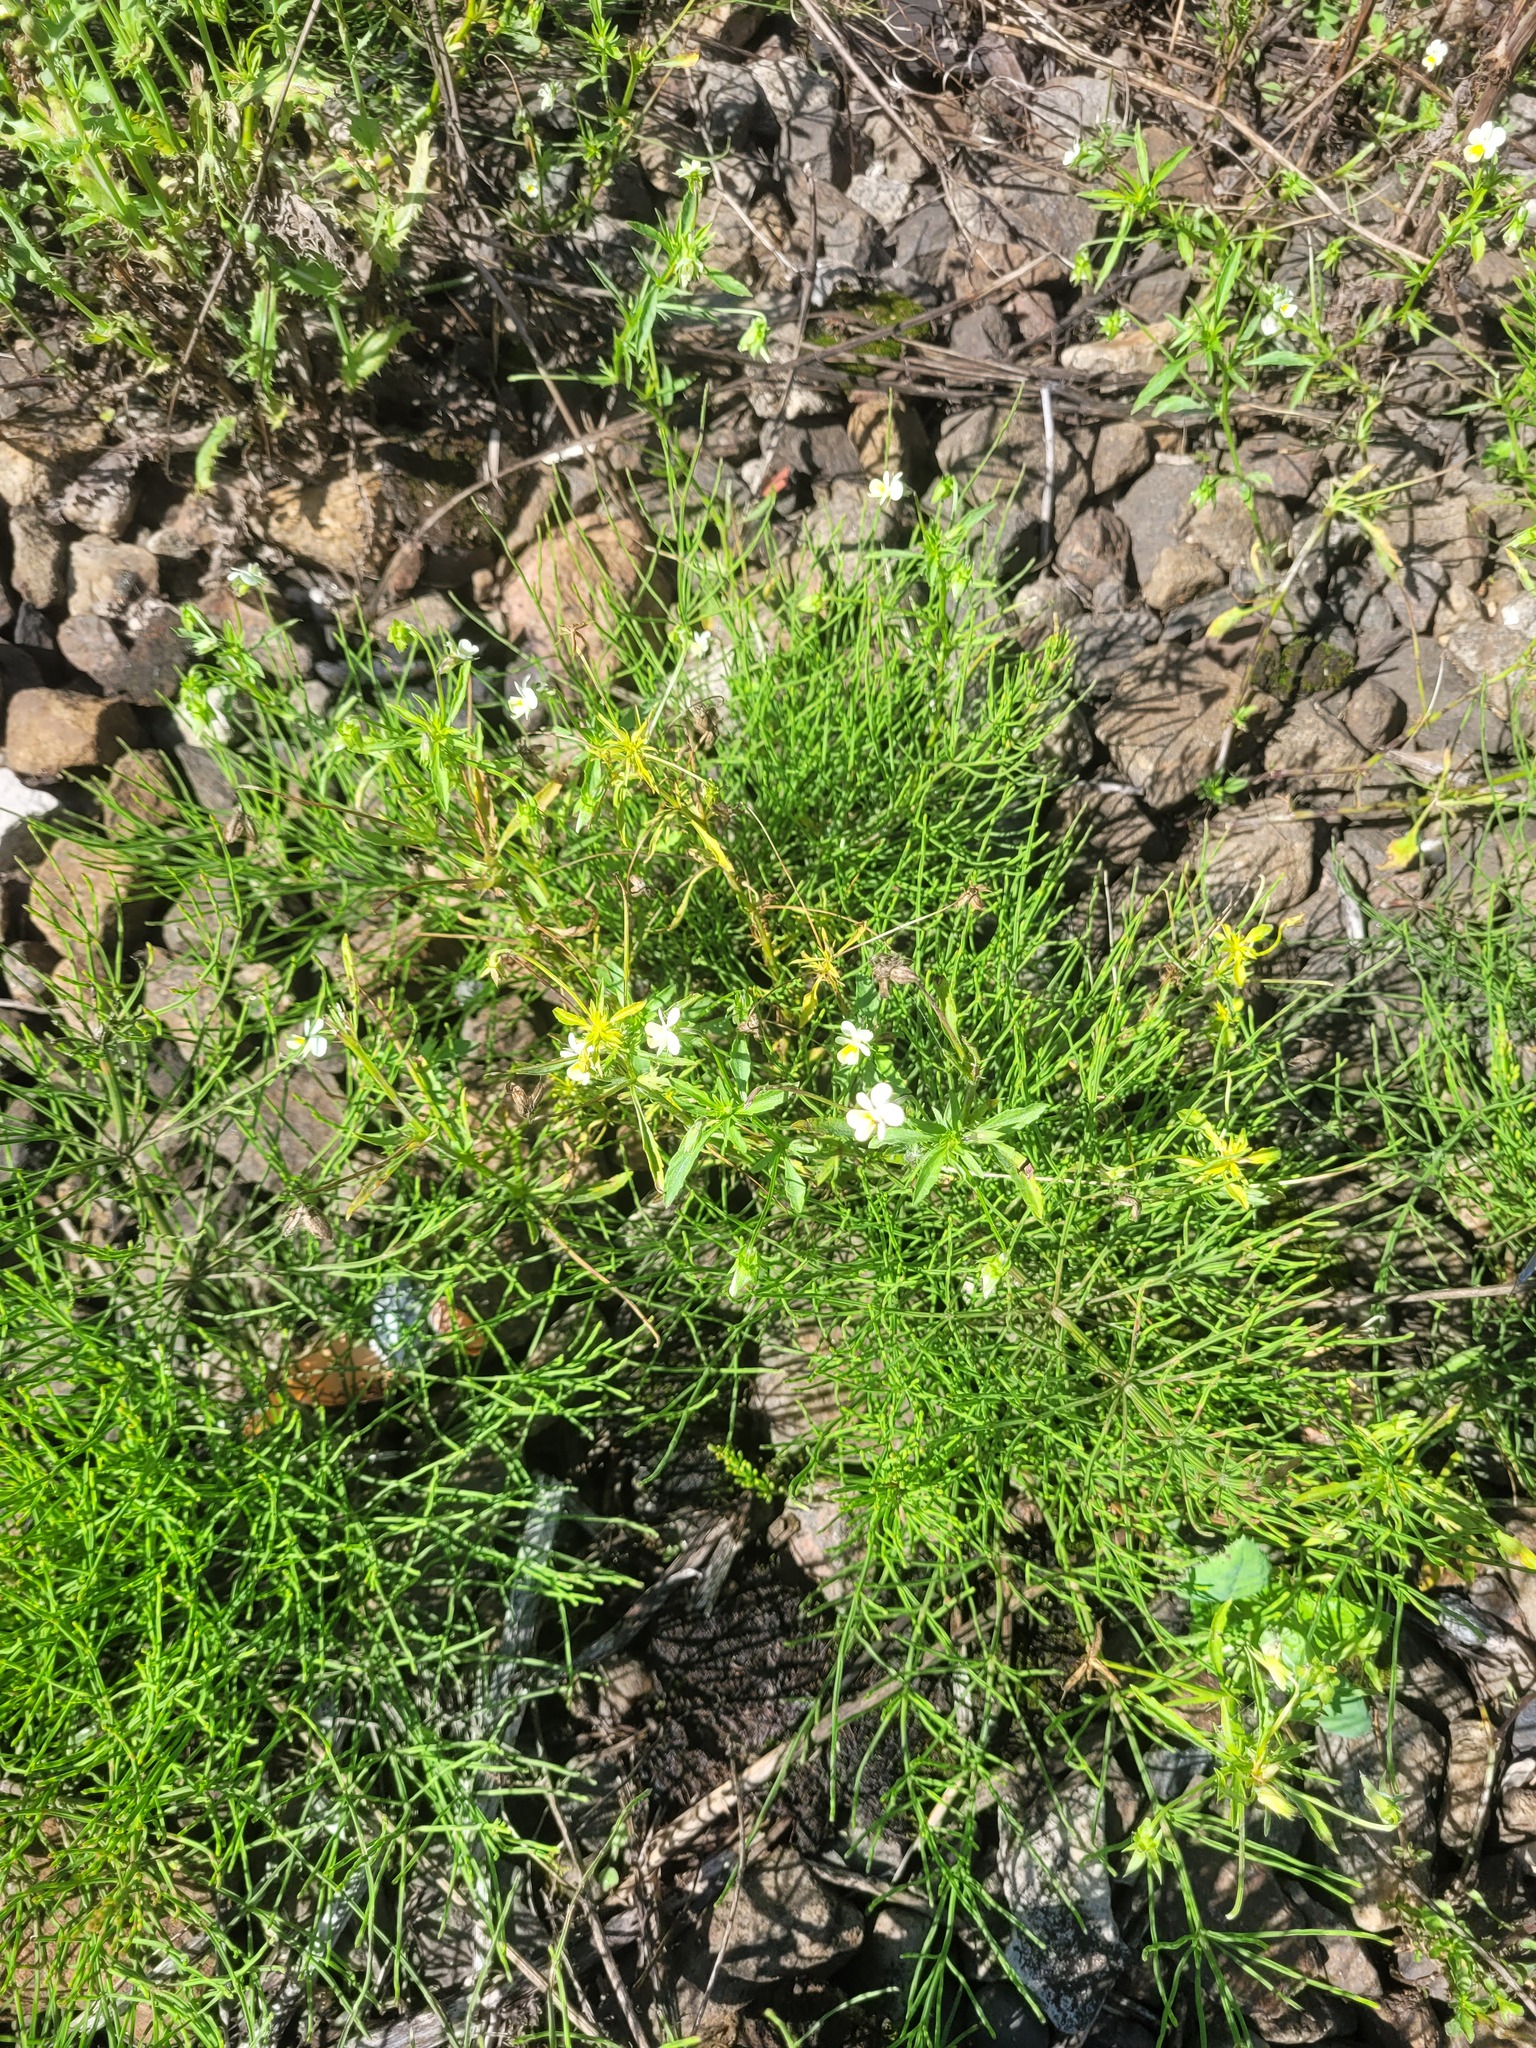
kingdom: Plantae
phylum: Tracheophyta
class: Magnoliopsida
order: Malpighiales
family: Violaceae
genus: Viola
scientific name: Viola arvensis
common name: Field pansy
